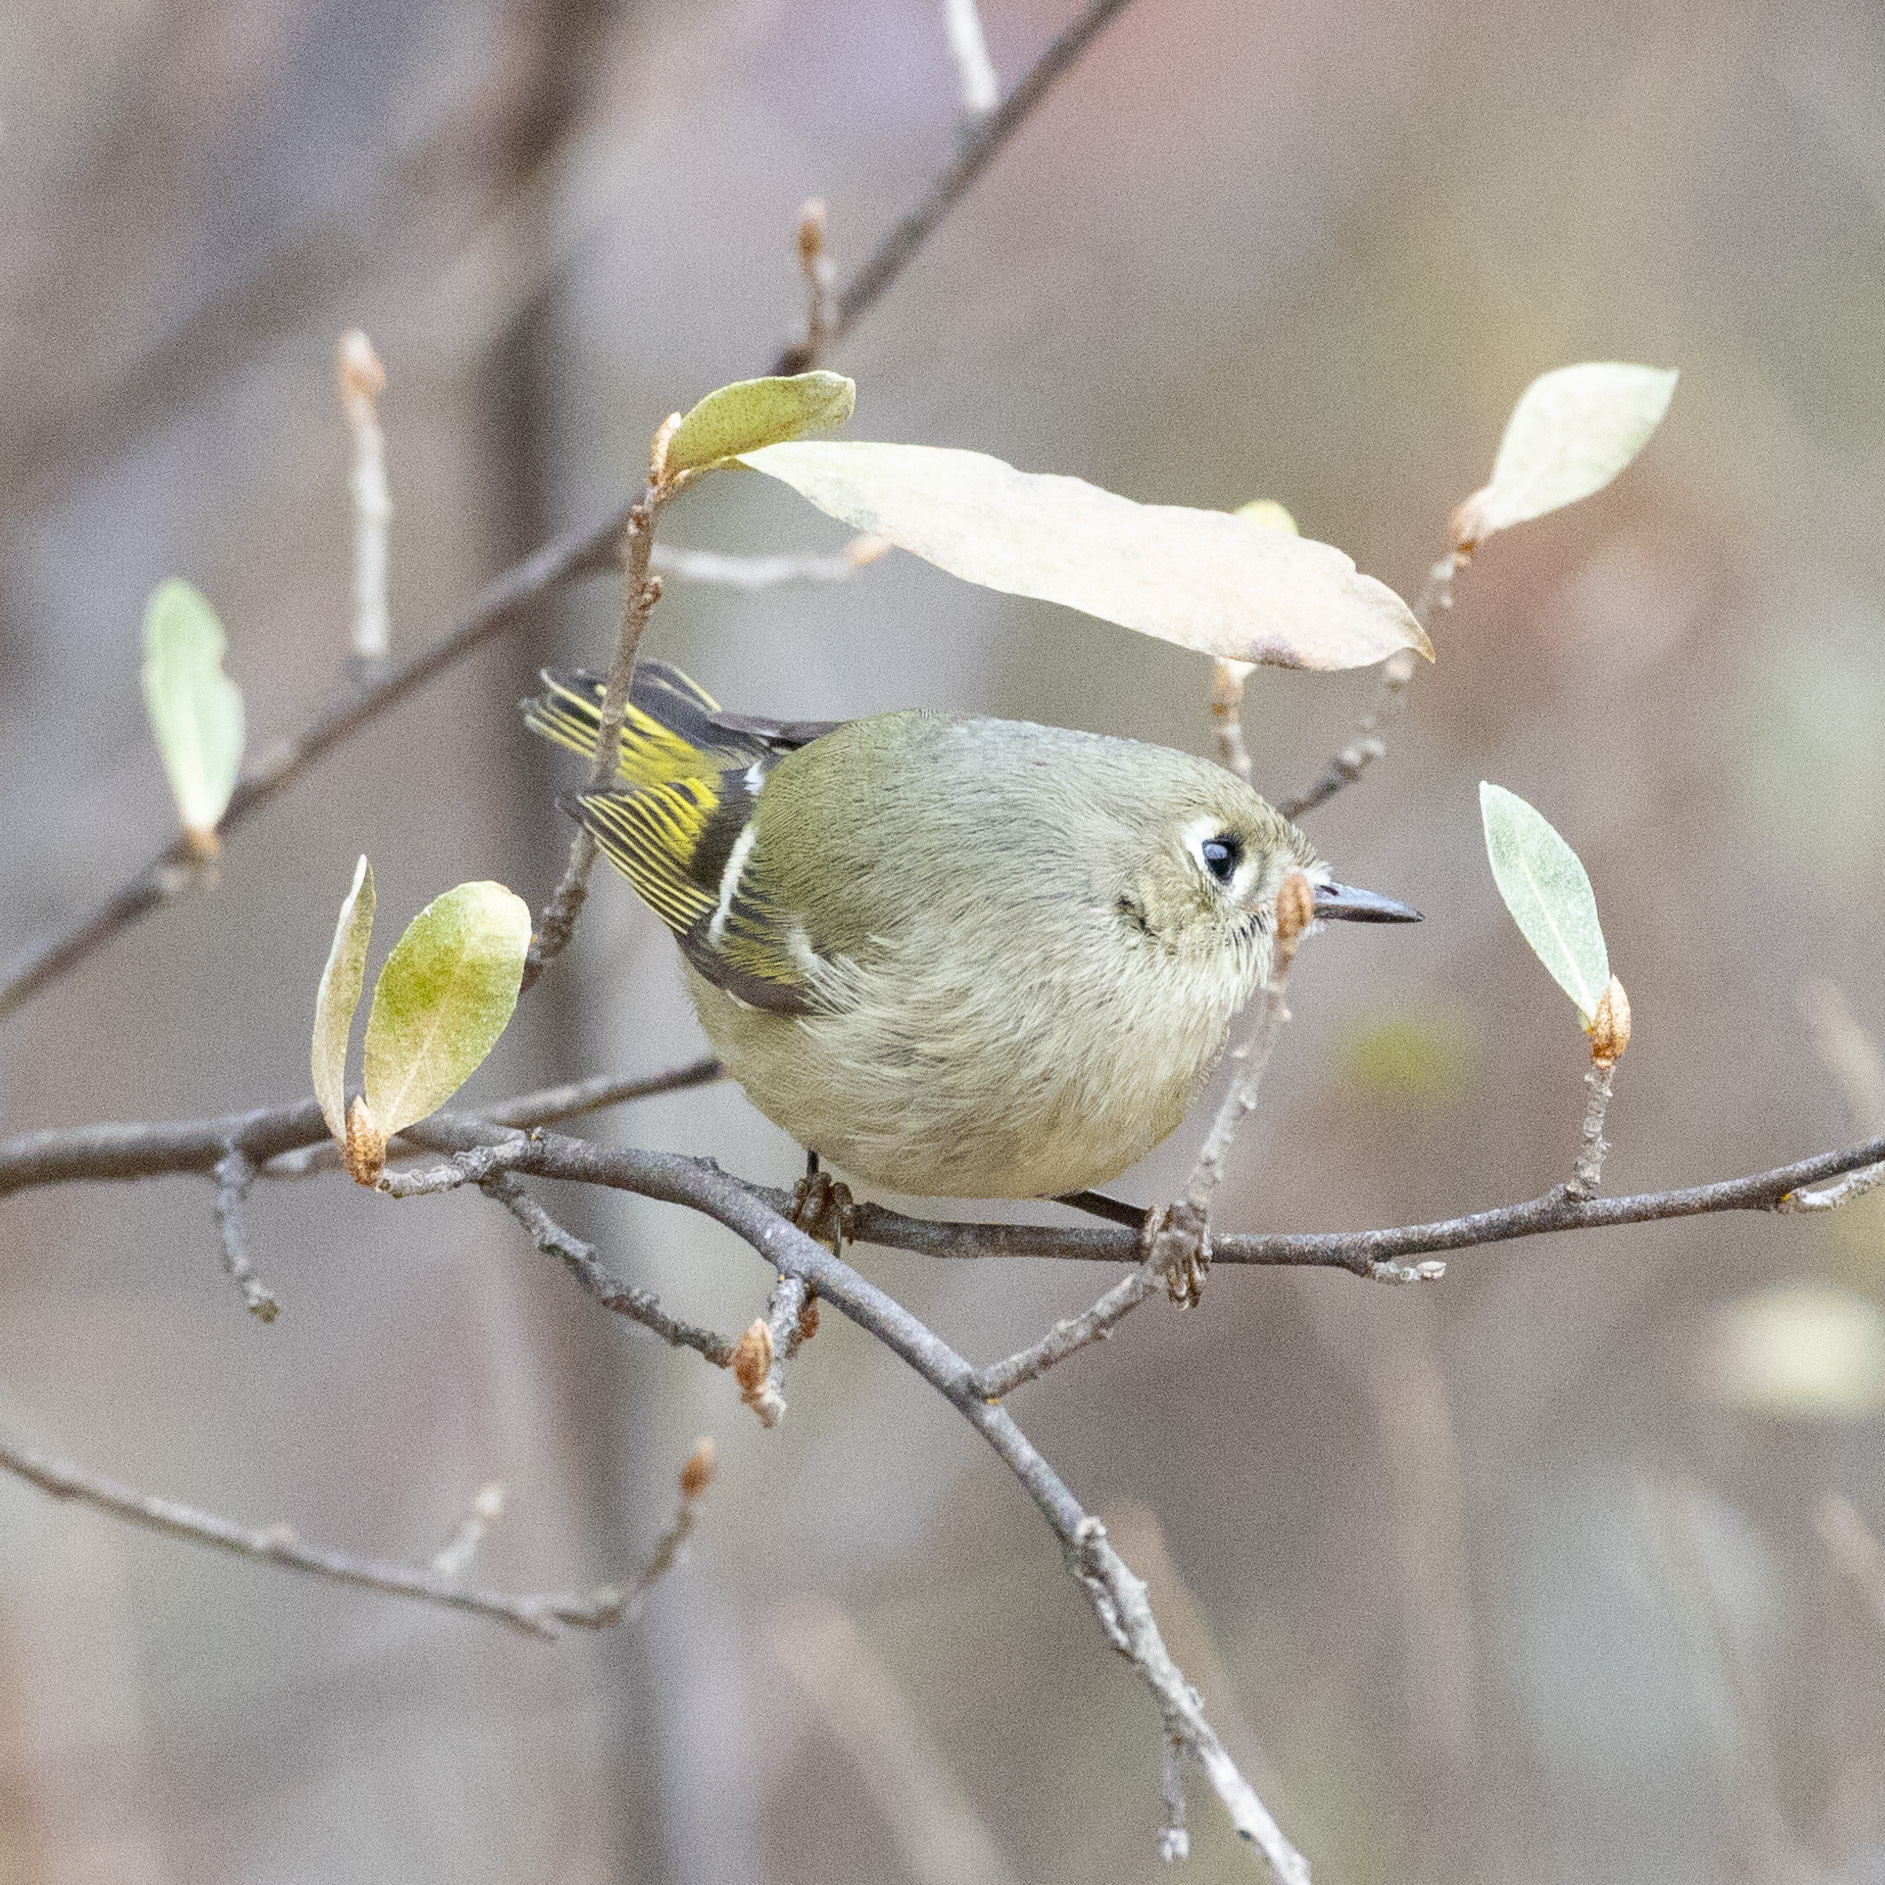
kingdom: Animalia
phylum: Chordata
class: Aves
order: Passeriformes
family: Regulidae
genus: Regulus
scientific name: Regulus calendula
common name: Ruby-crowned kinglet
